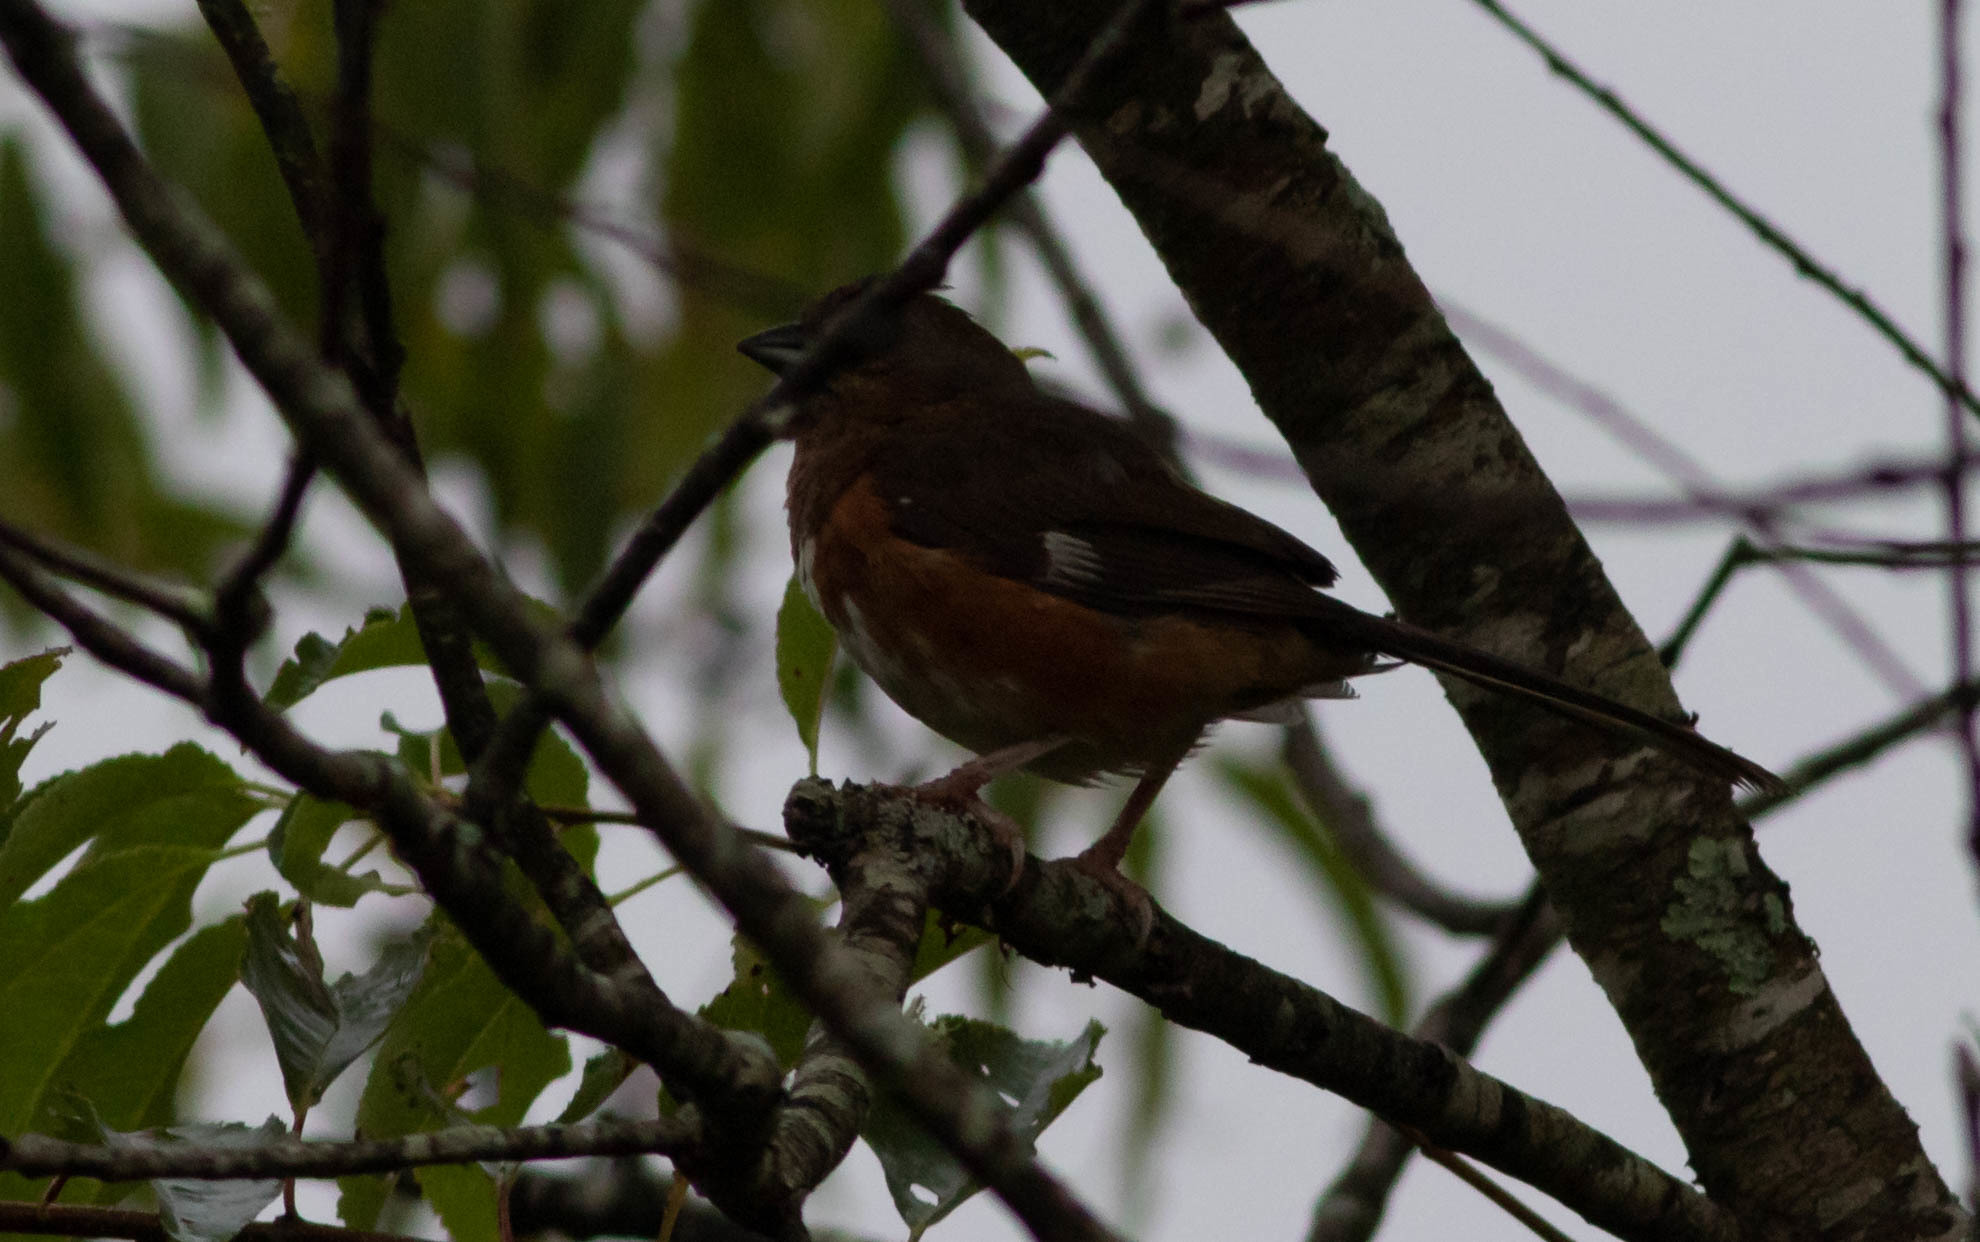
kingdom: Animalia
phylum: Chordata
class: Aves
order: Passeriformes
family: Passerellidae
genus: Pipilo
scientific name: Pipilo erythrophthalmus
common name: Eastern towhee
